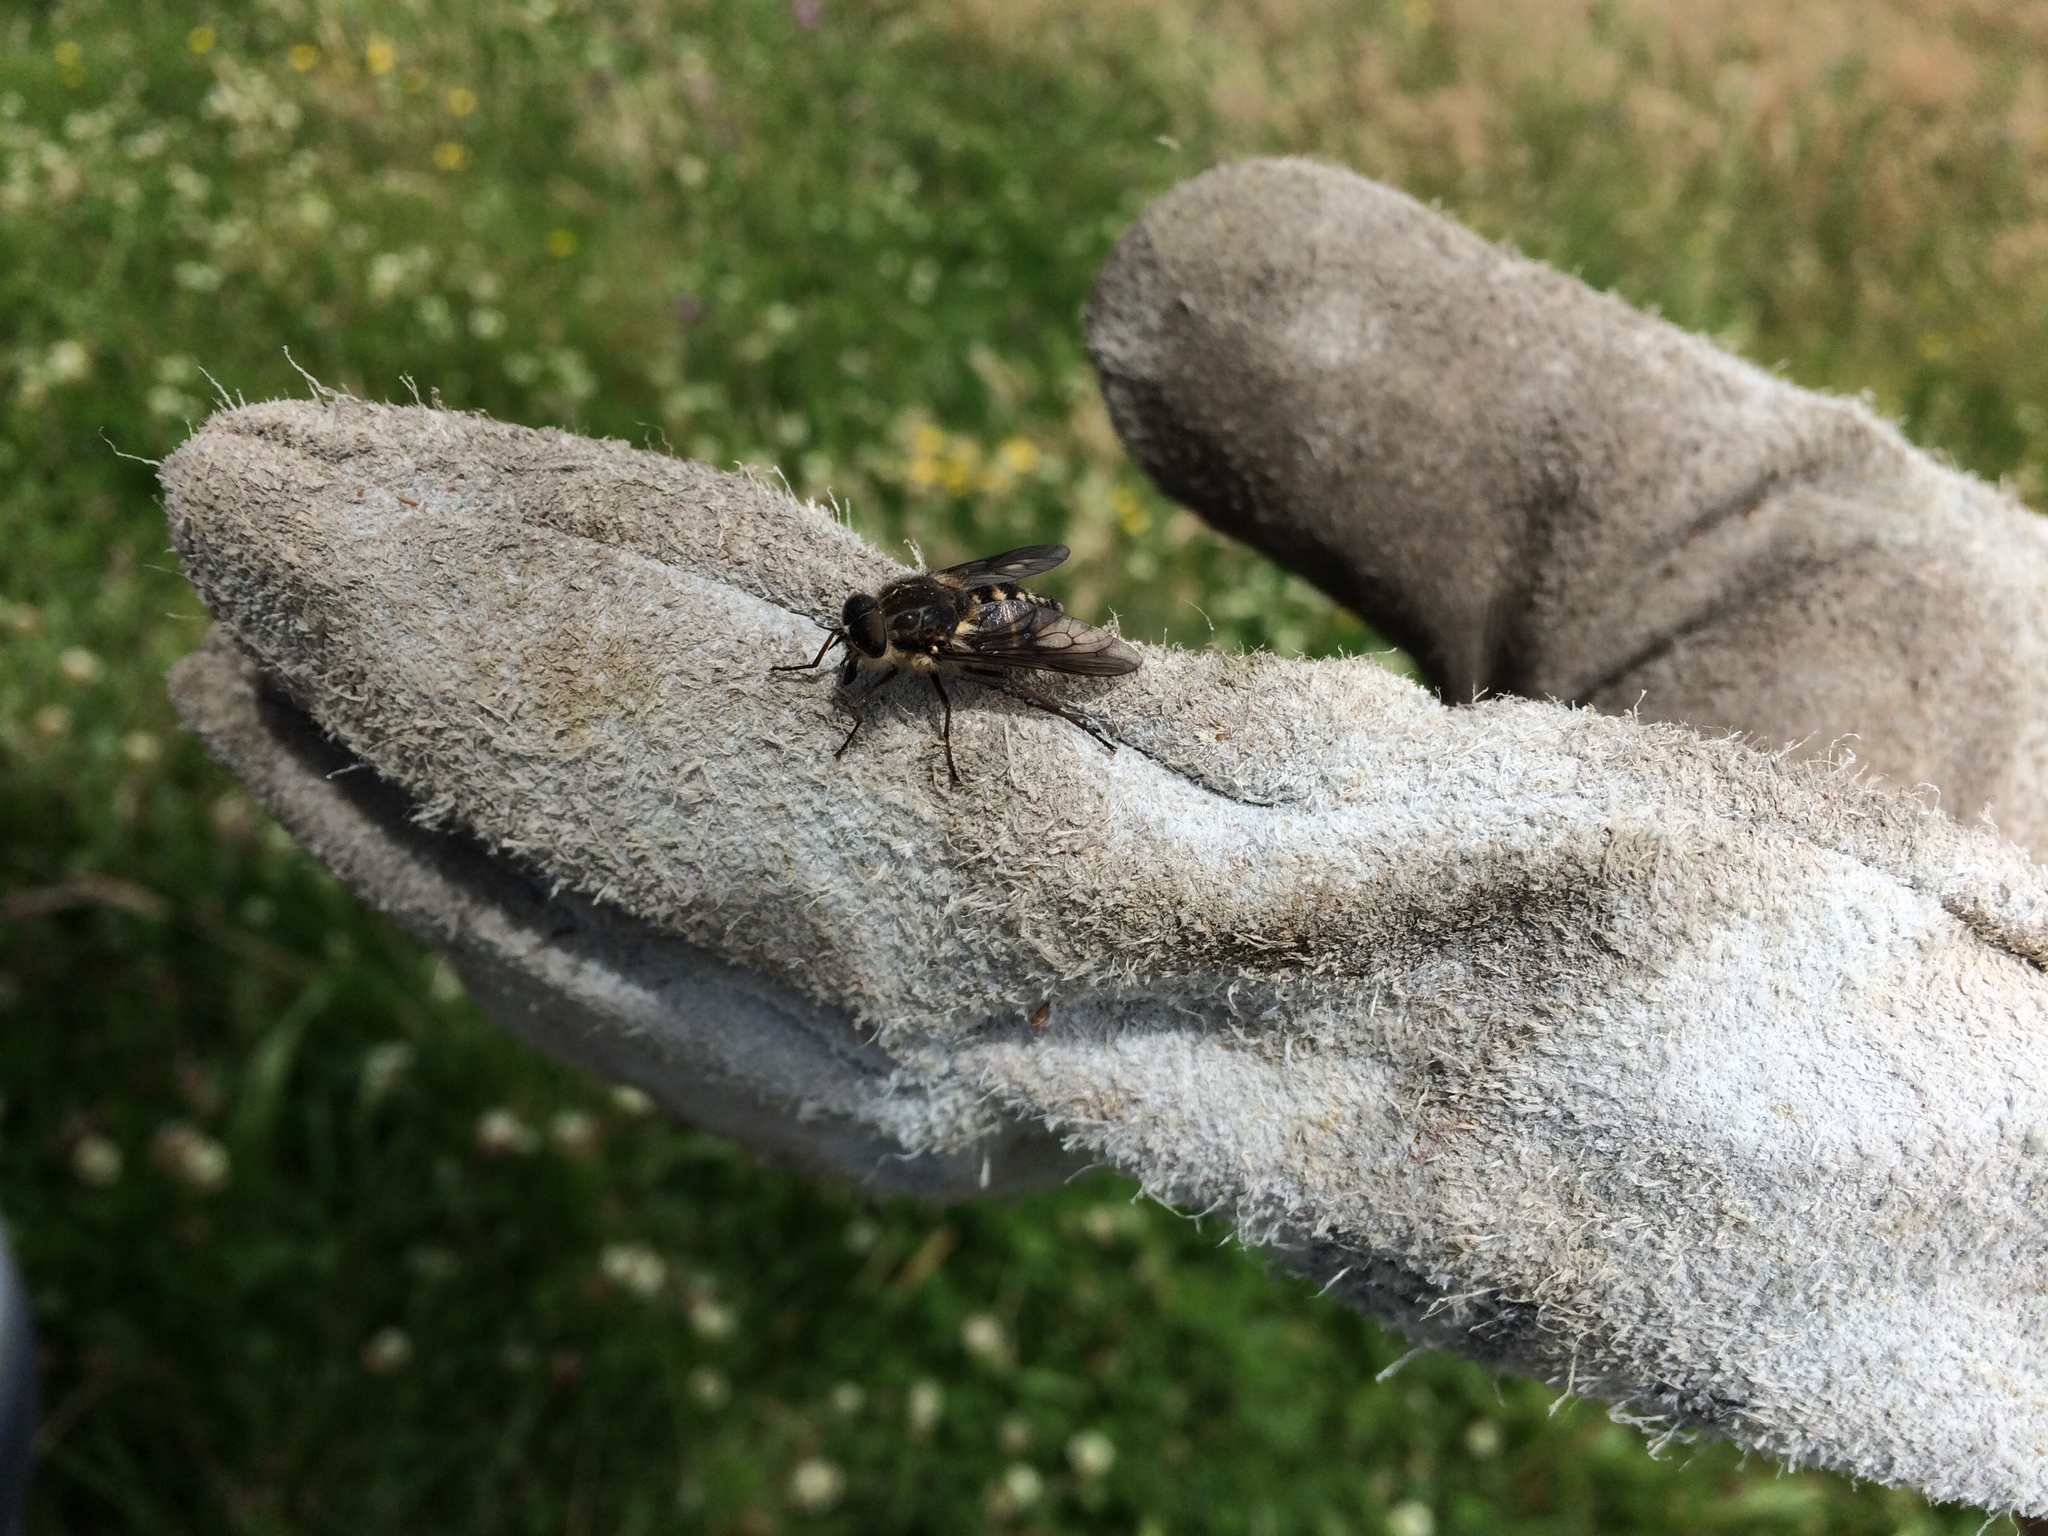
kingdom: Animalia
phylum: Arthropoda
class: Insecta
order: Diptera
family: Tabanidae
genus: Scaptia
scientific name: Scaptia
